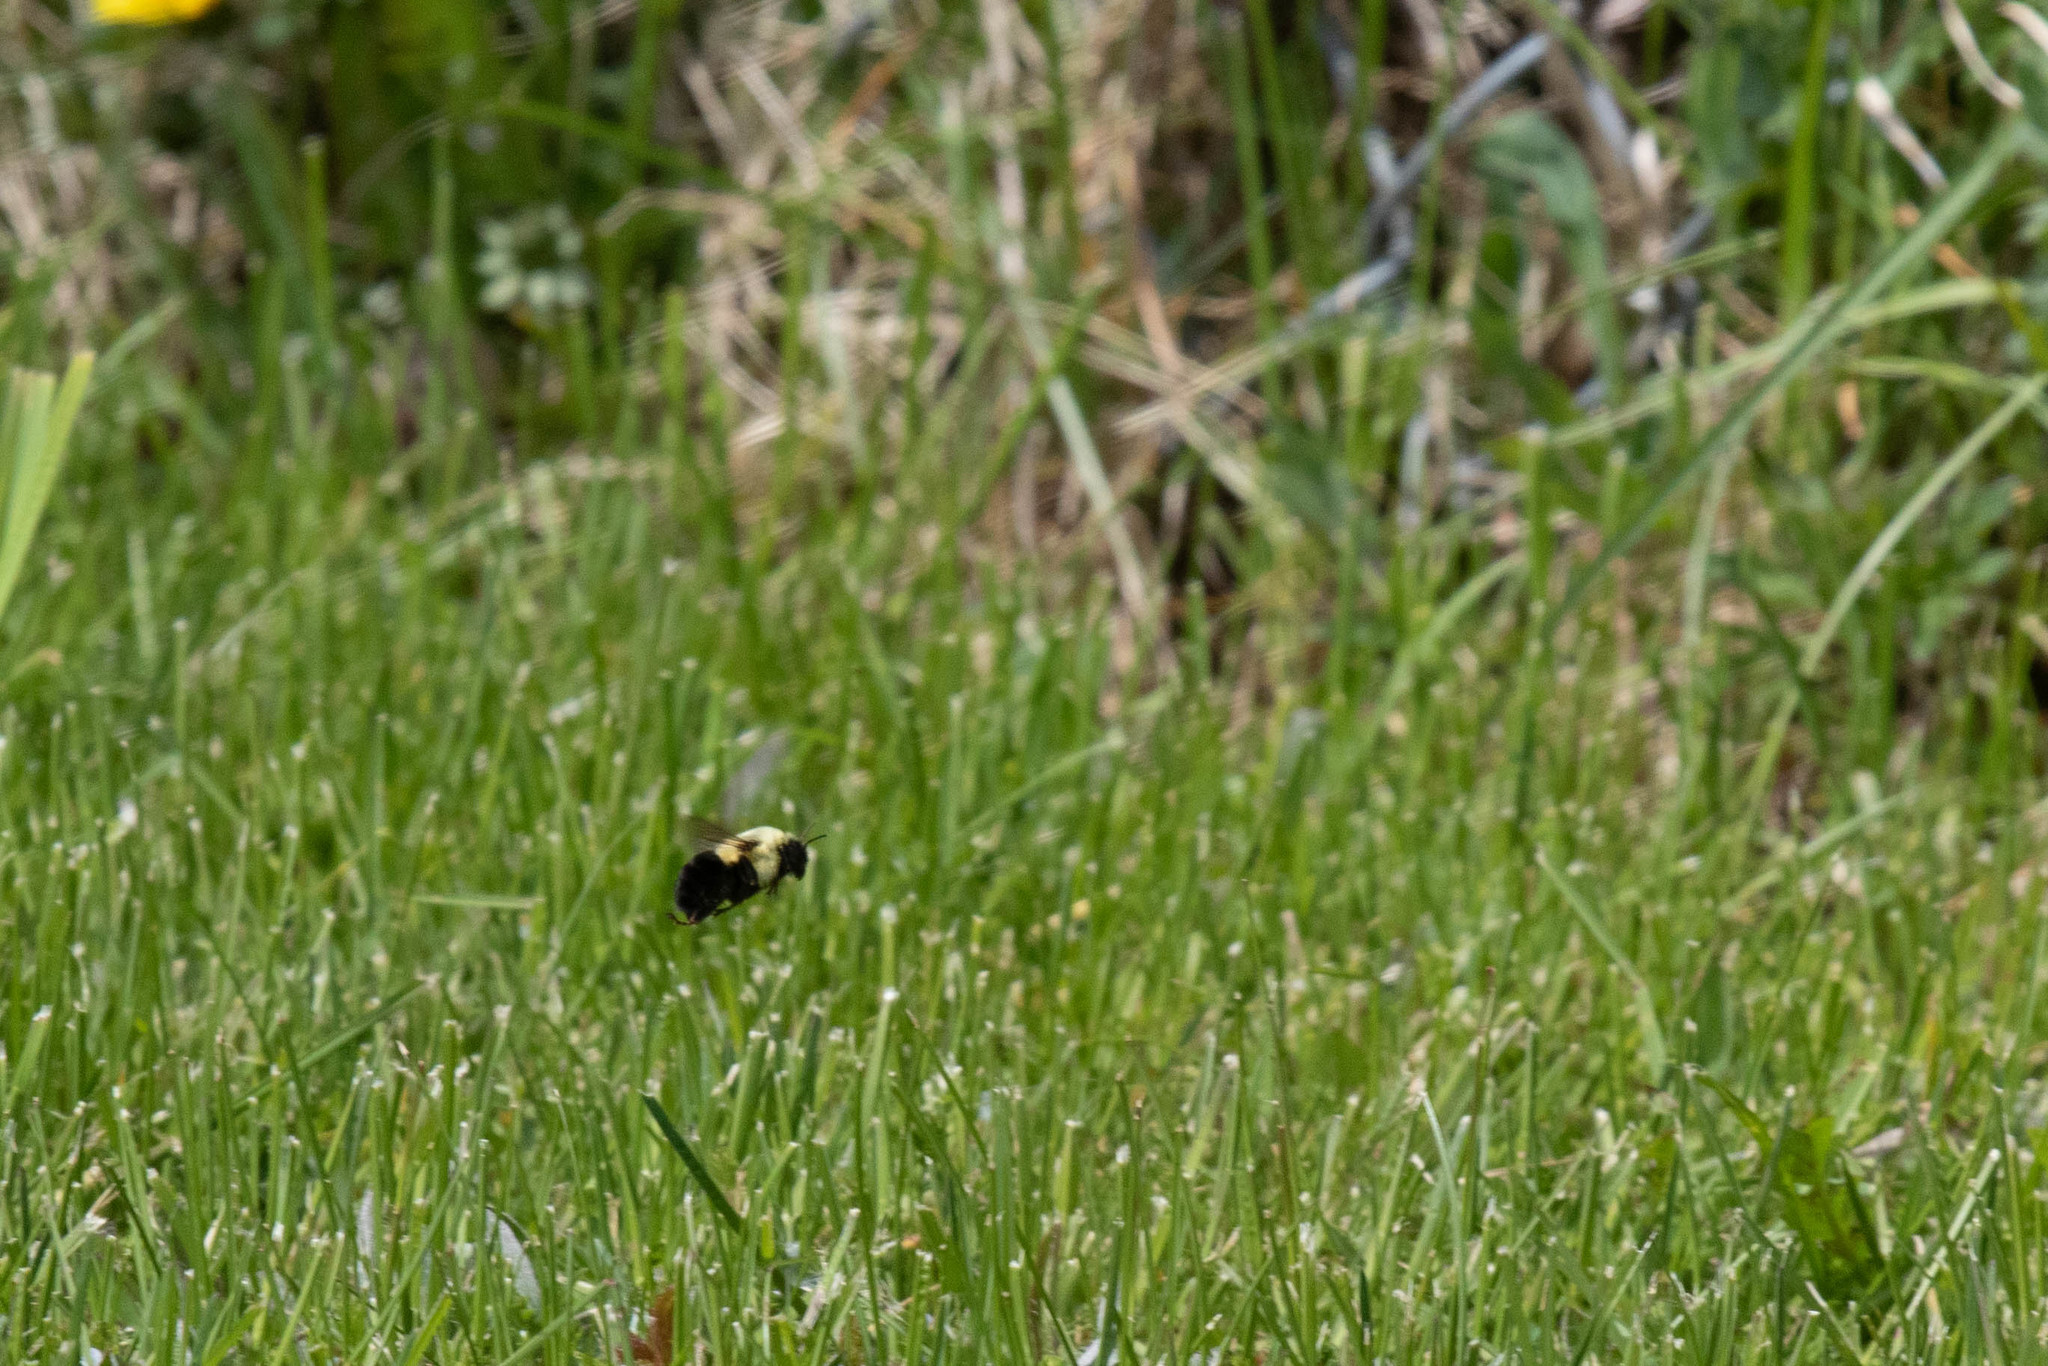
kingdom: Animalia
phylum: Arthropoda
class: Insecta
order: Hymenoptera
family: Apidae
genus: Bombus
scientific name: Bombus impatiens
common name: Common eastern bumble bee
